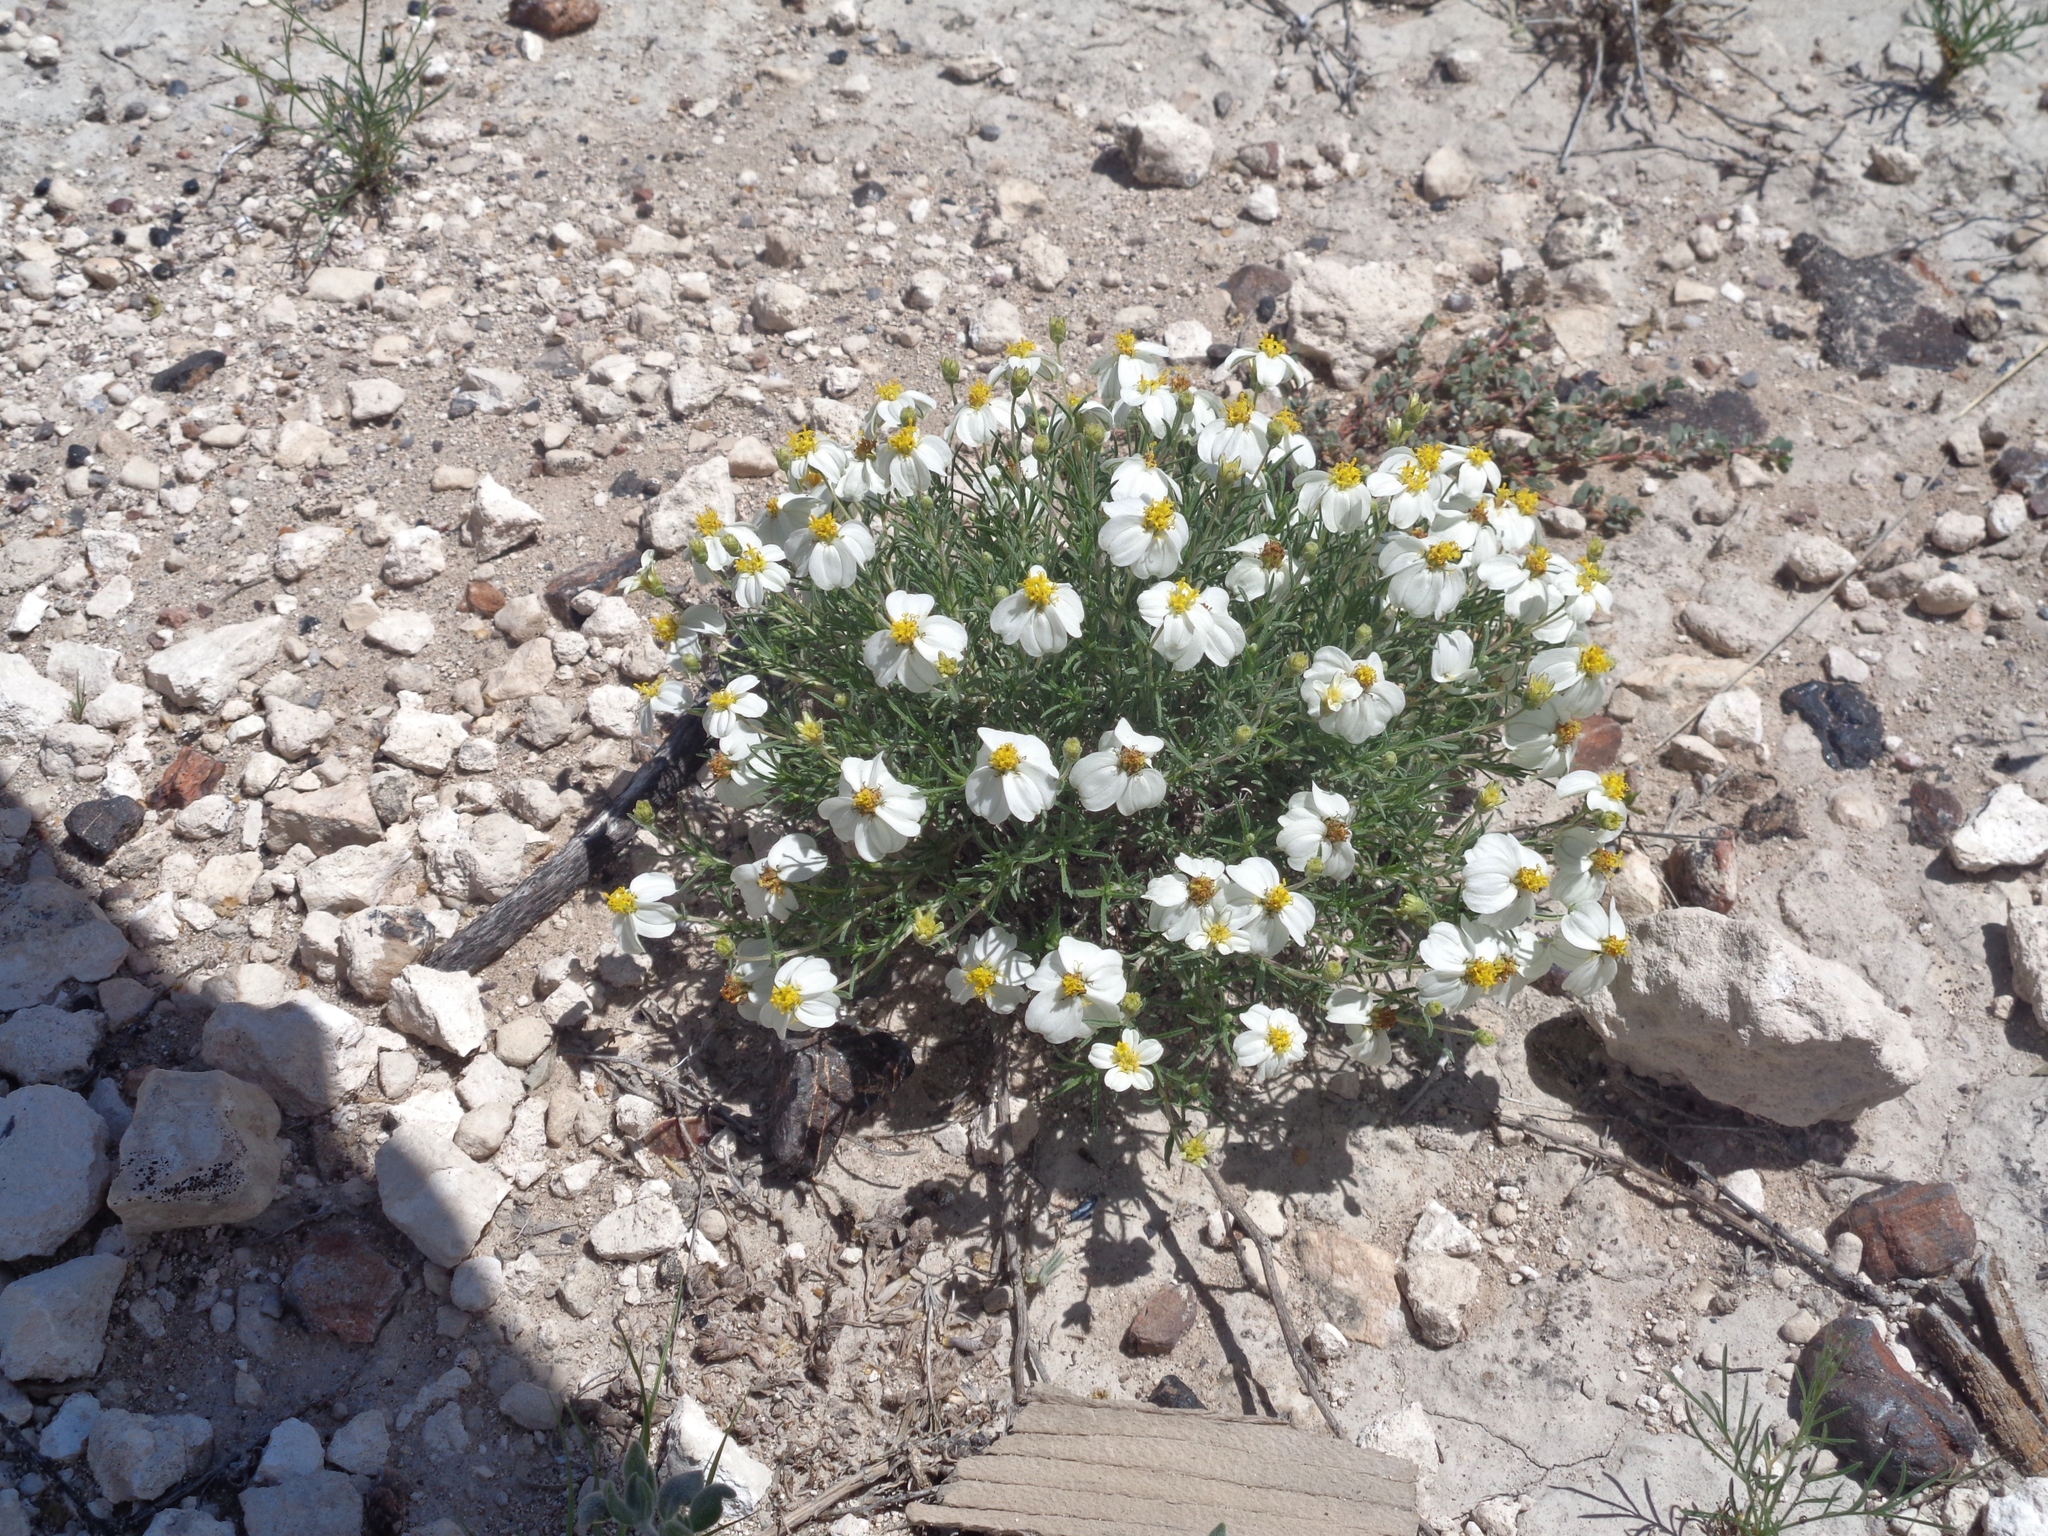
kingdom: Plantae
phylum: Tracheophyta
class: Magnoliopsida
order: Asterales
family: Asteraceae
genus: Zinnia
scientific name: Zinnia acerosa
